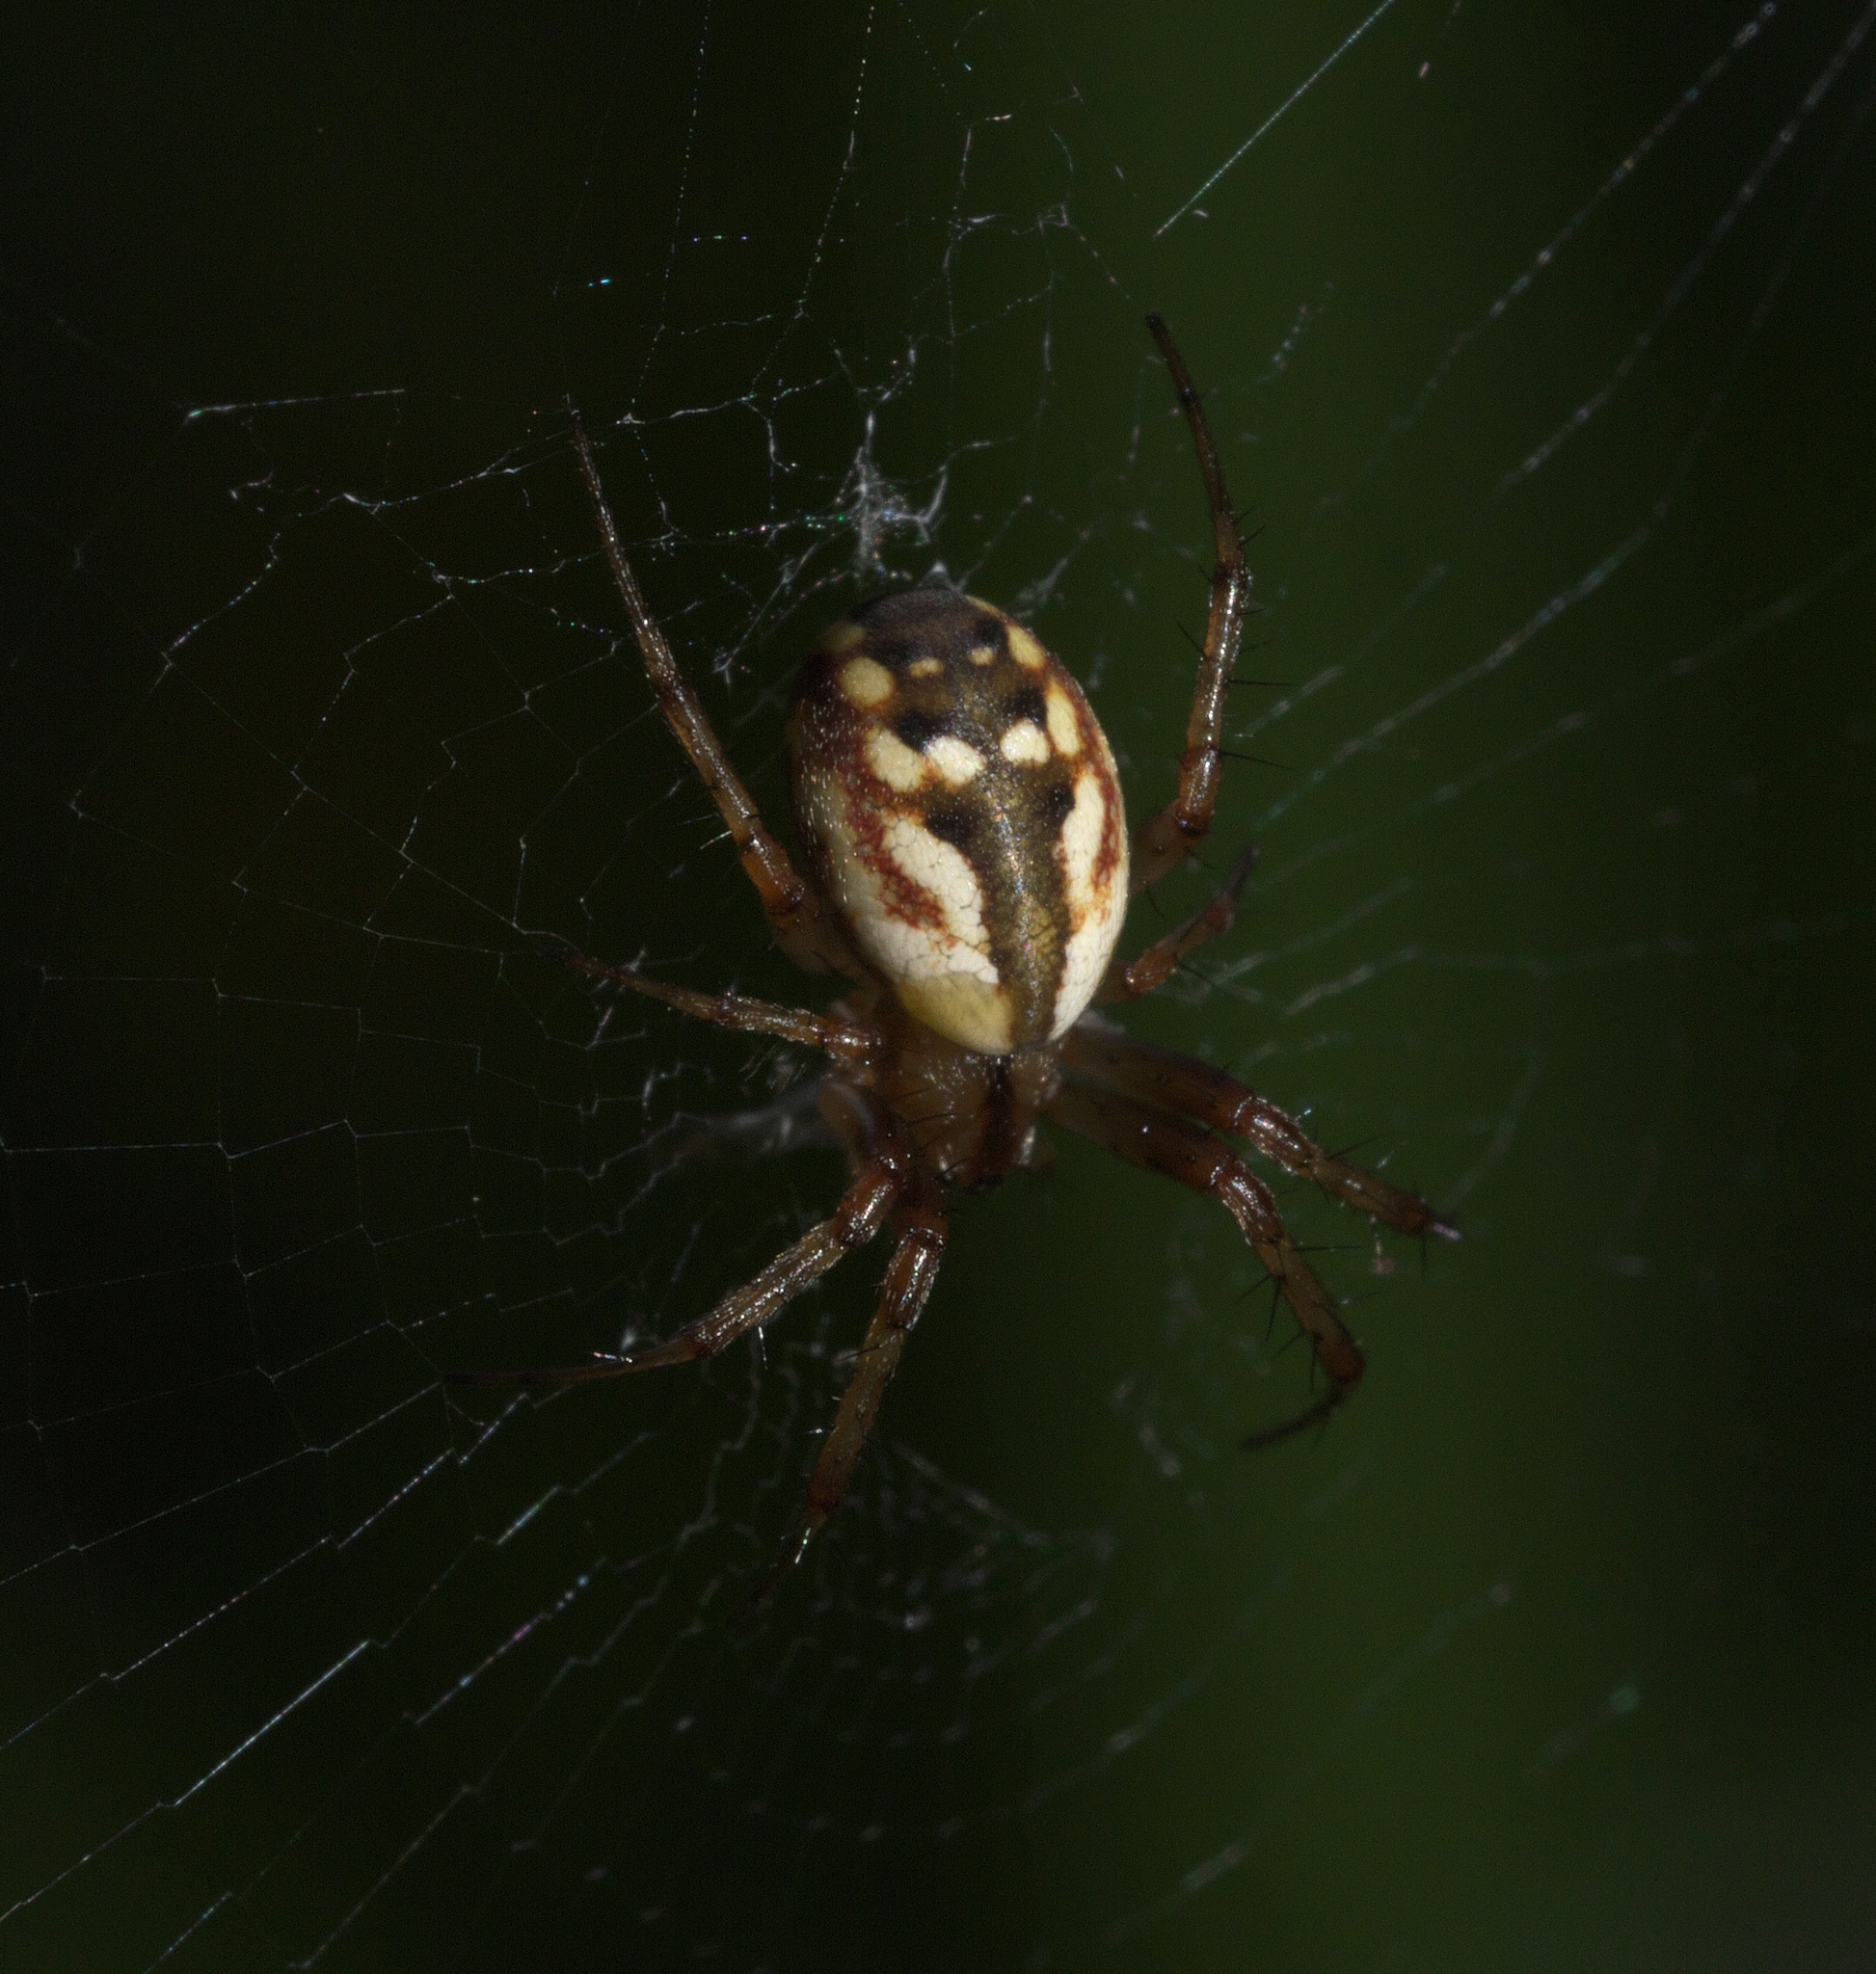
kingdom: Animalia
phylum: Arthropoda
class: Arachnida
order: Araneae
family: Araneidae
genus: Mangora
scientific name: Mangora placida
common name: Tuft-legged orbweaver
